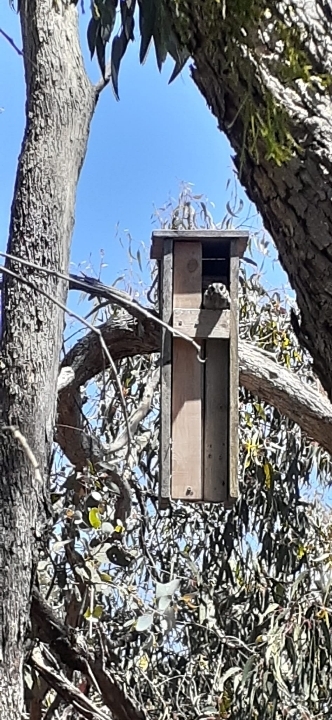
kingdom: Animalia
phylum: Chordata
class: Aves
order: Apodiformes
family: Aegothelidae
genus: Aegotheles
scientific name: Aegotheles cristatus
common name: Australian owlet-nightjar
